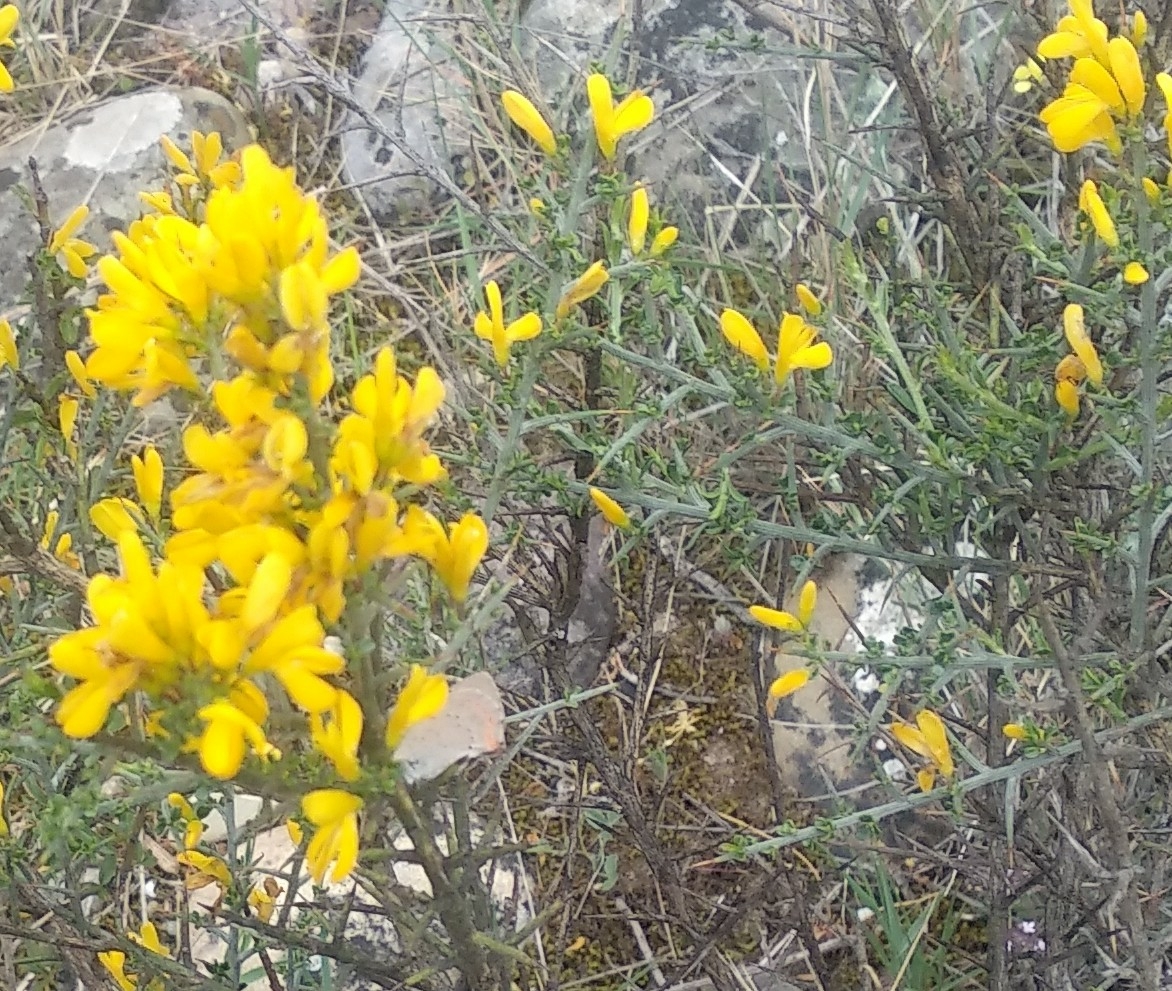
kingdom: Animalia
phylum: Arthropoda
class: Insecta
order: Lepidoptera
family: Lycaenidae
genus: Lycaena
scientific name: Lycaena phlaeas
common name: Small copper
